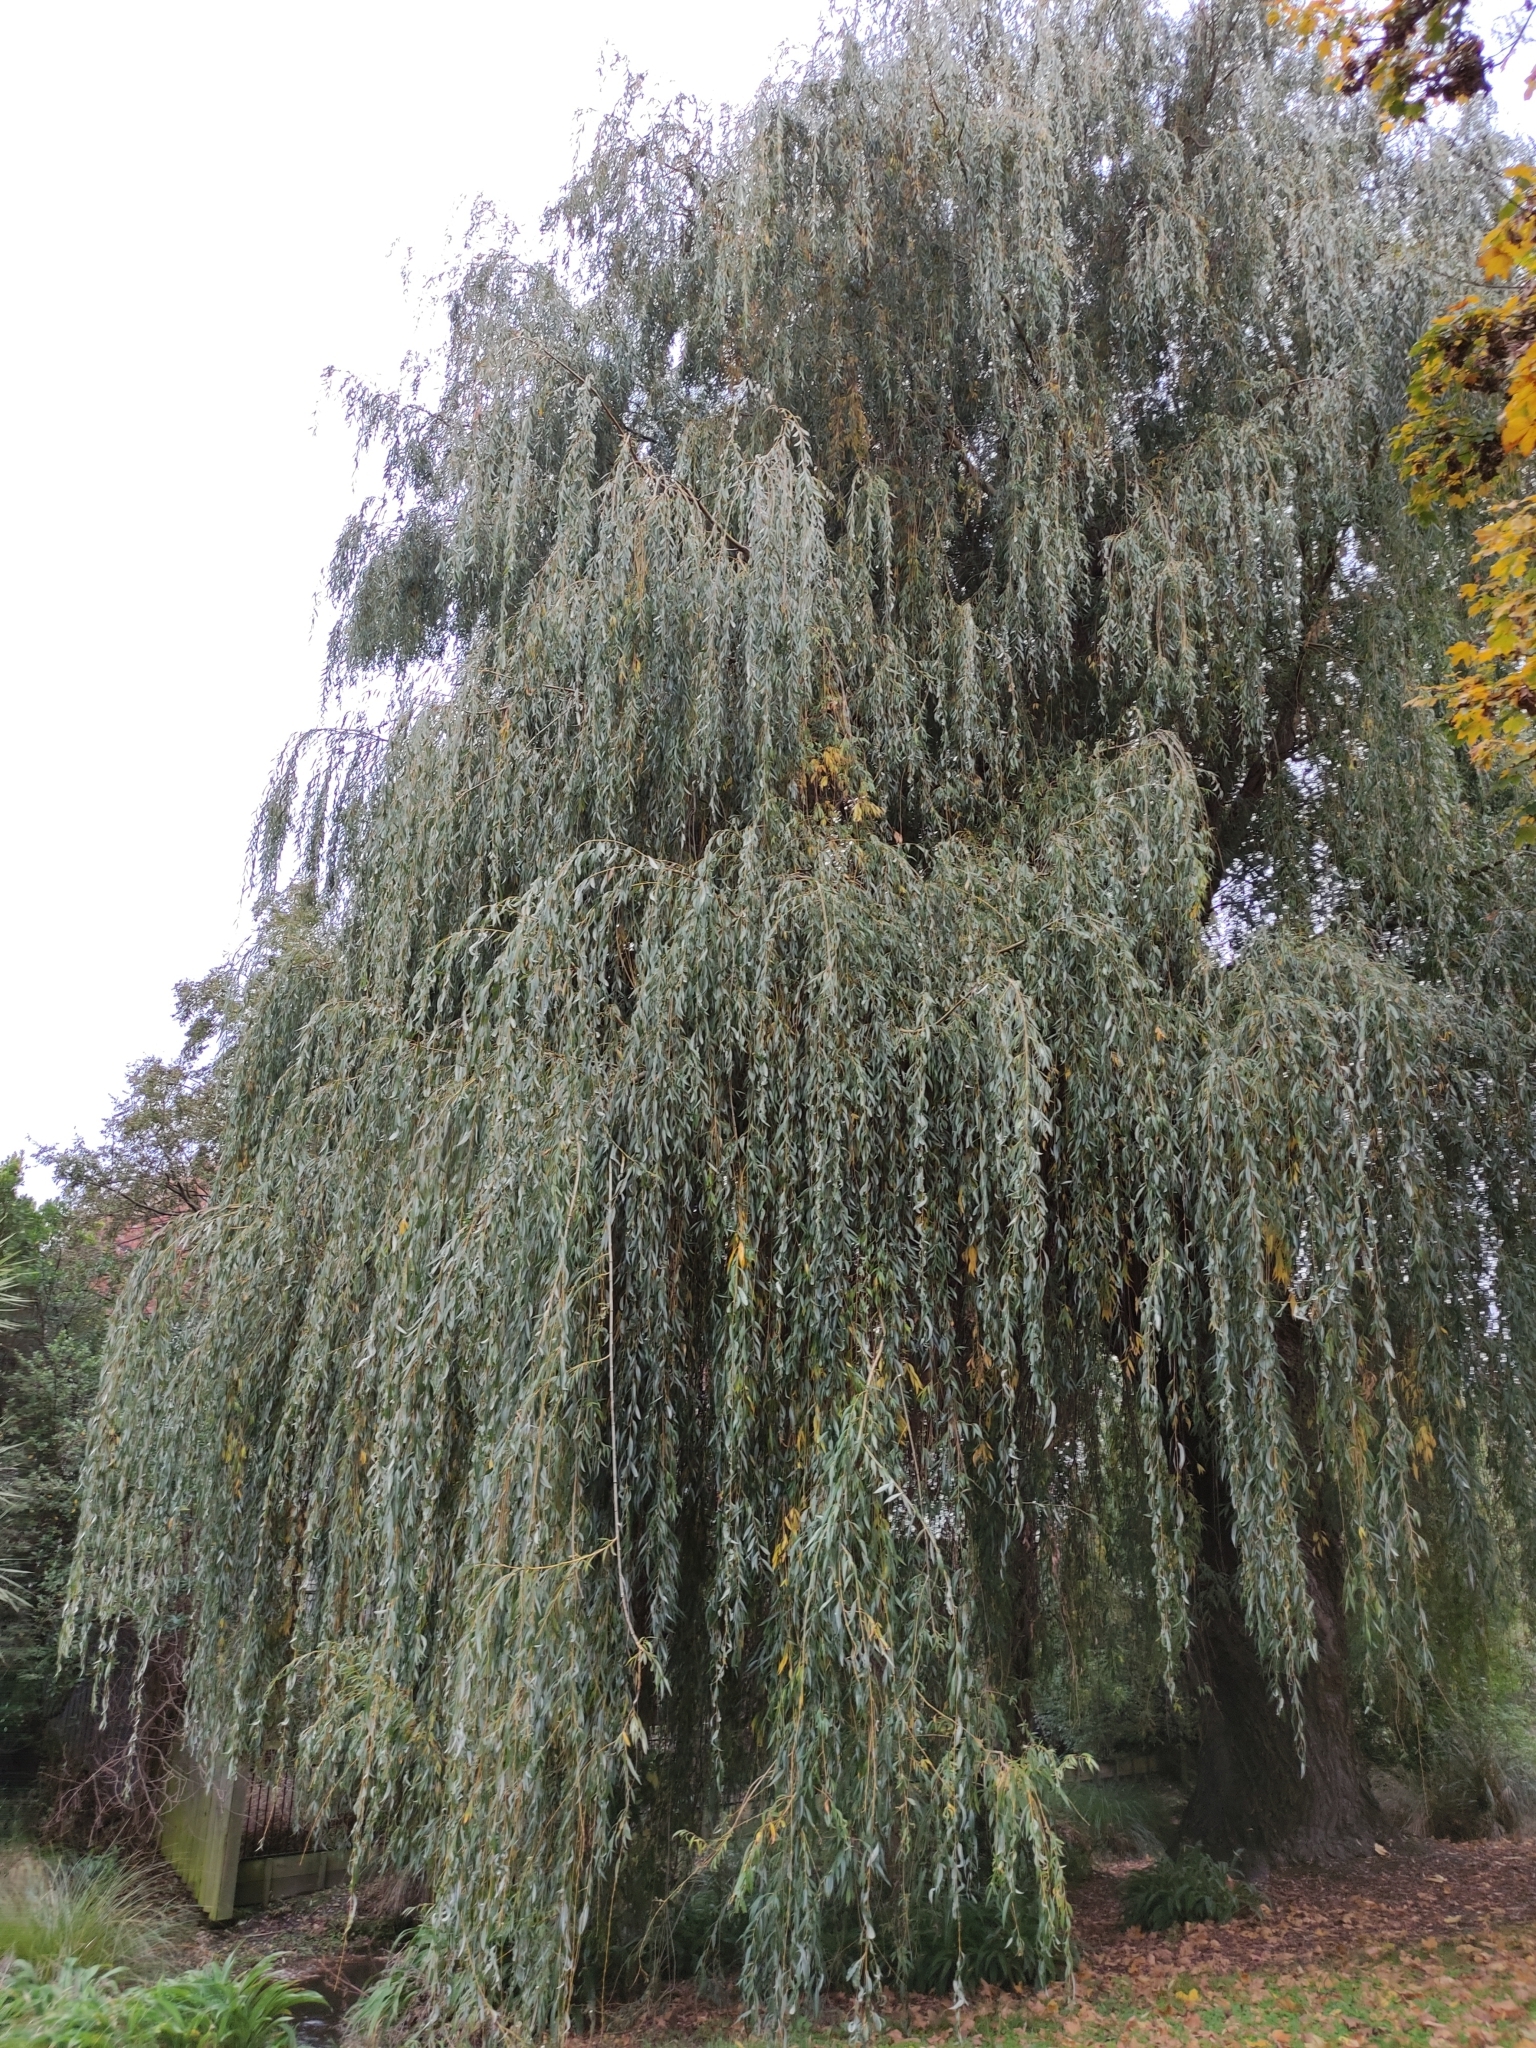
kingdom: Plantae
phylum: Tracheophyta
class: Magnoliopsida
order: Malpighiales
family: Salicaceae
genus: Salix
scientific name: Salix babylonica
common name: Weeping willow
